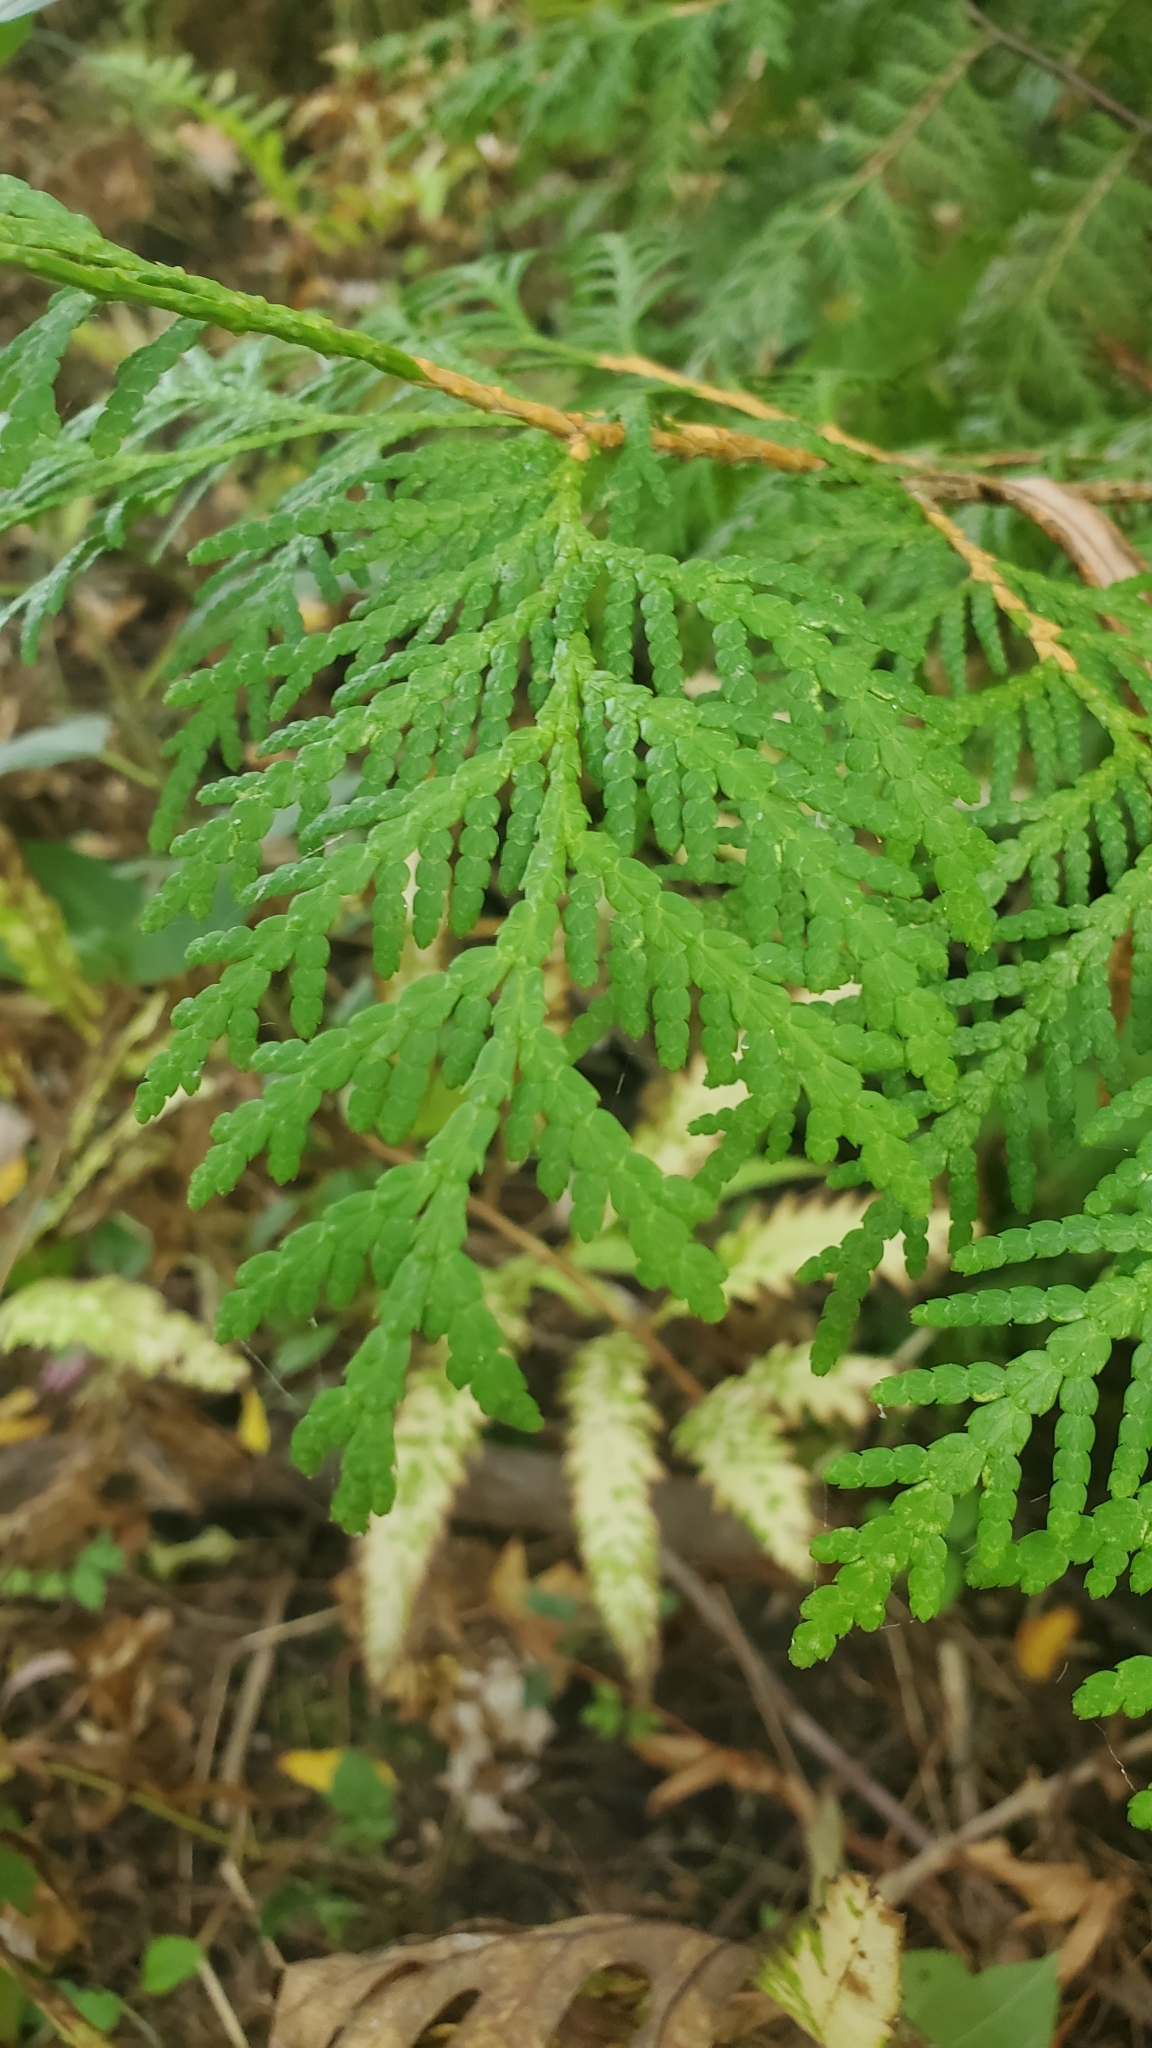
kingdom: Plantae
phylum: Tracheophyta
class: Pinopsida
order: Pinales
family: Cupressaceae
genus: Thuja
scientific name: Thuja occidentalis
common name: Northern white-cedar
